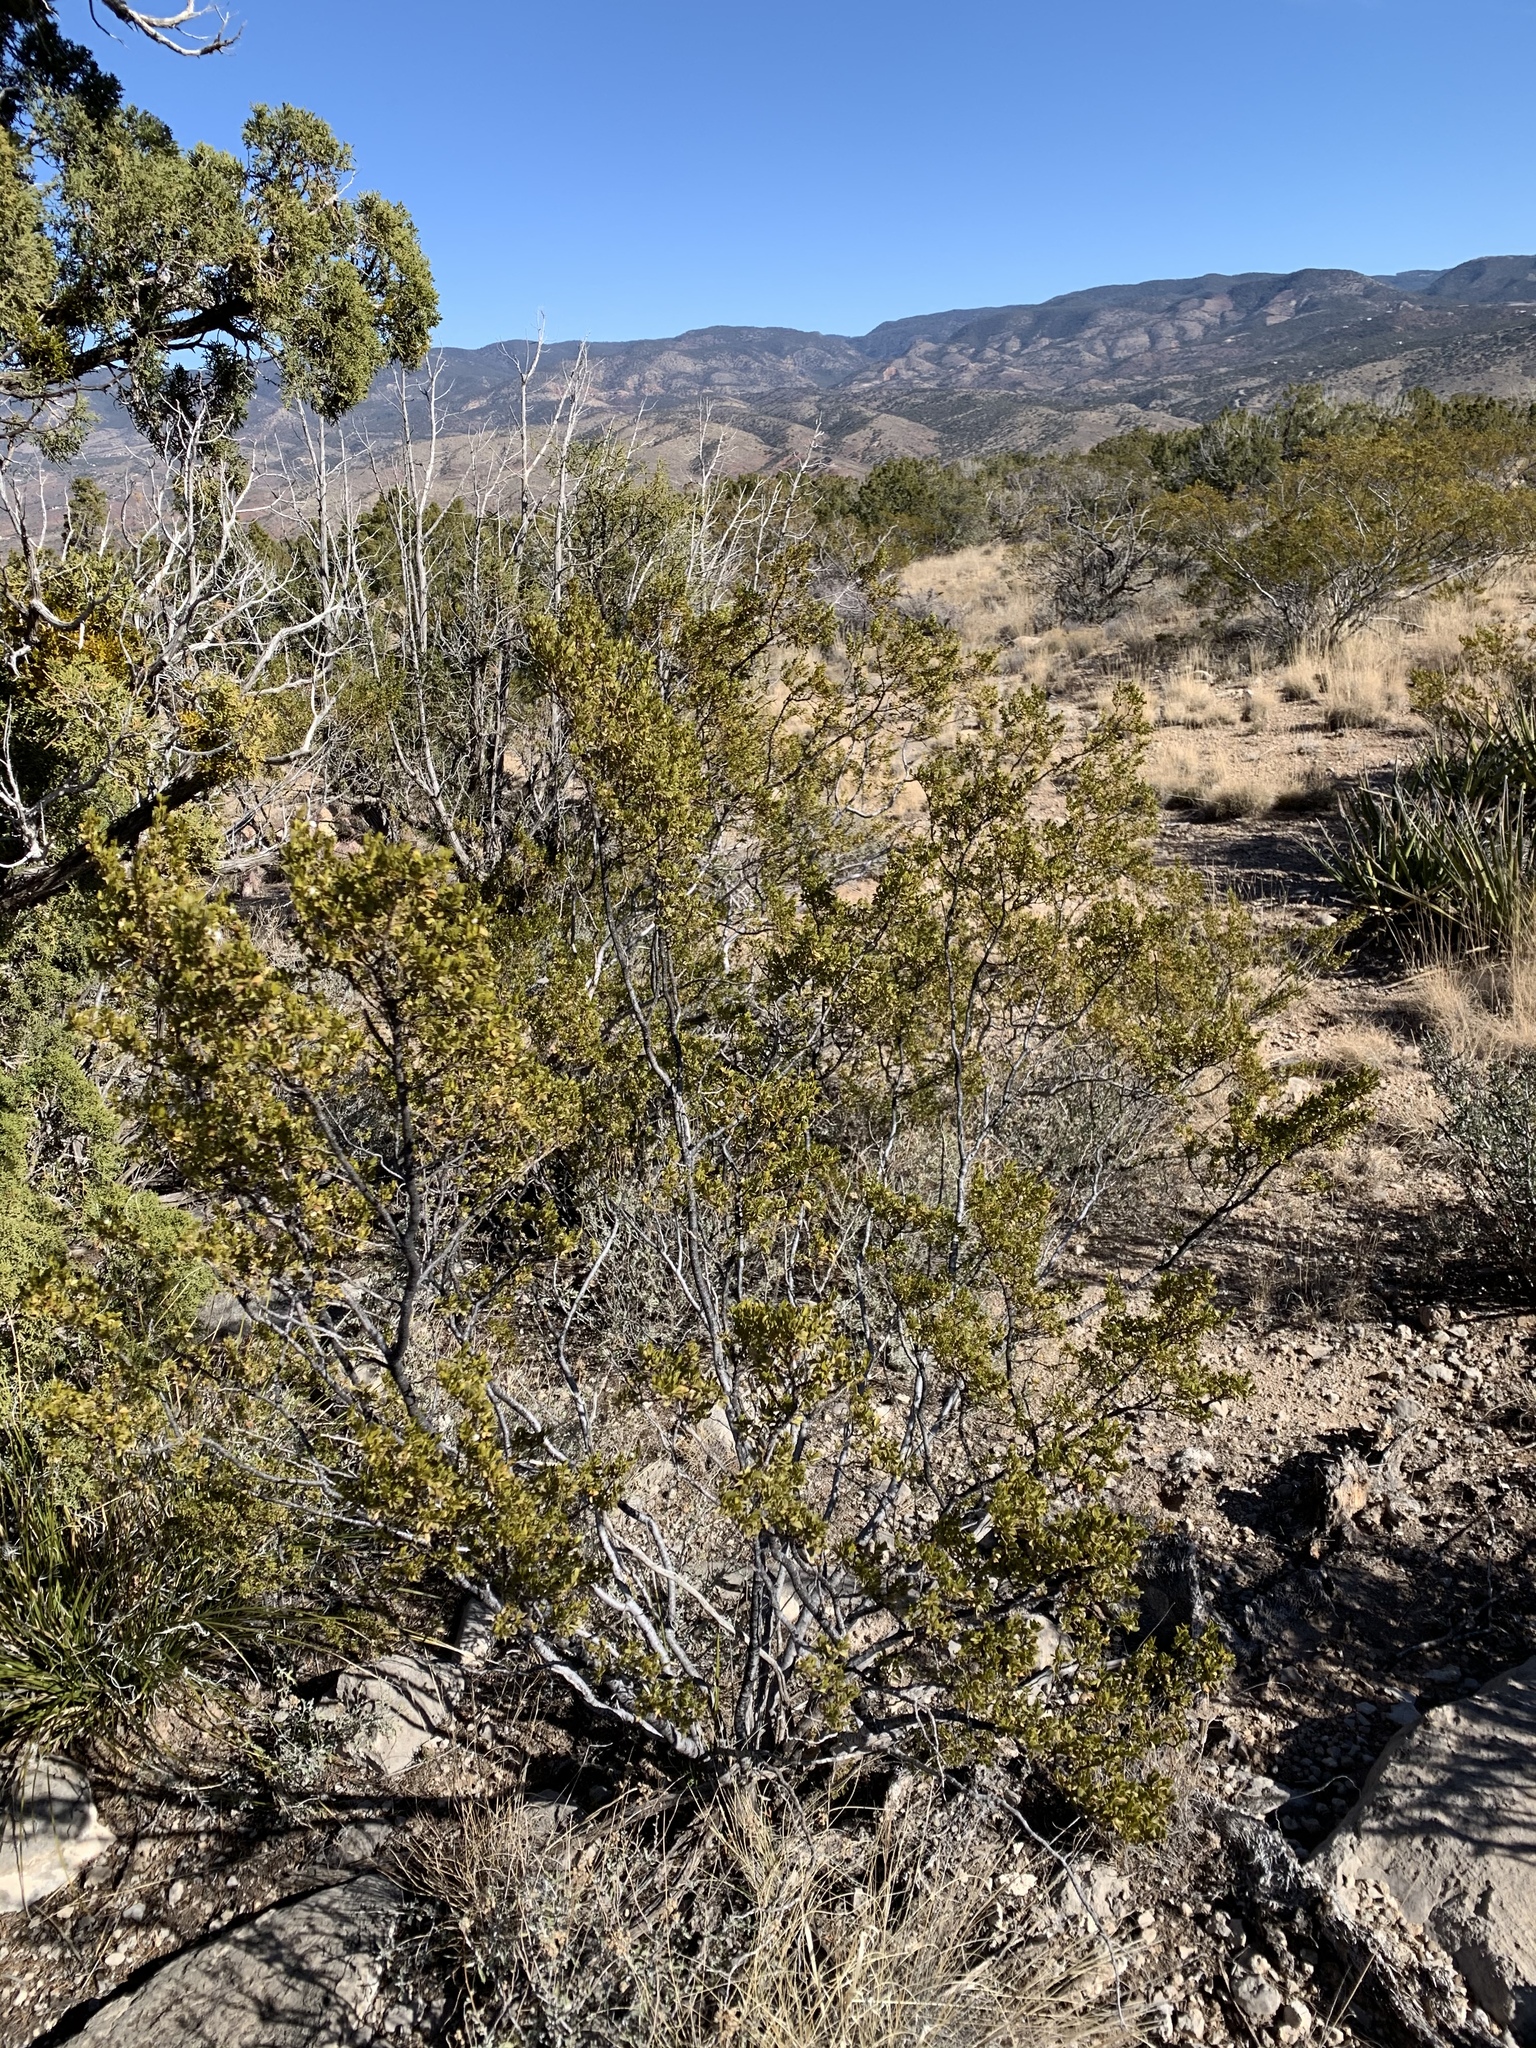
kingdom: Plantae
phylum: Tracheophyta
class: Magnoliopsida
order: Zygophyllales
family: Zygophyllaceae
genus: Larrea
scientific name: Larrea tridentata
